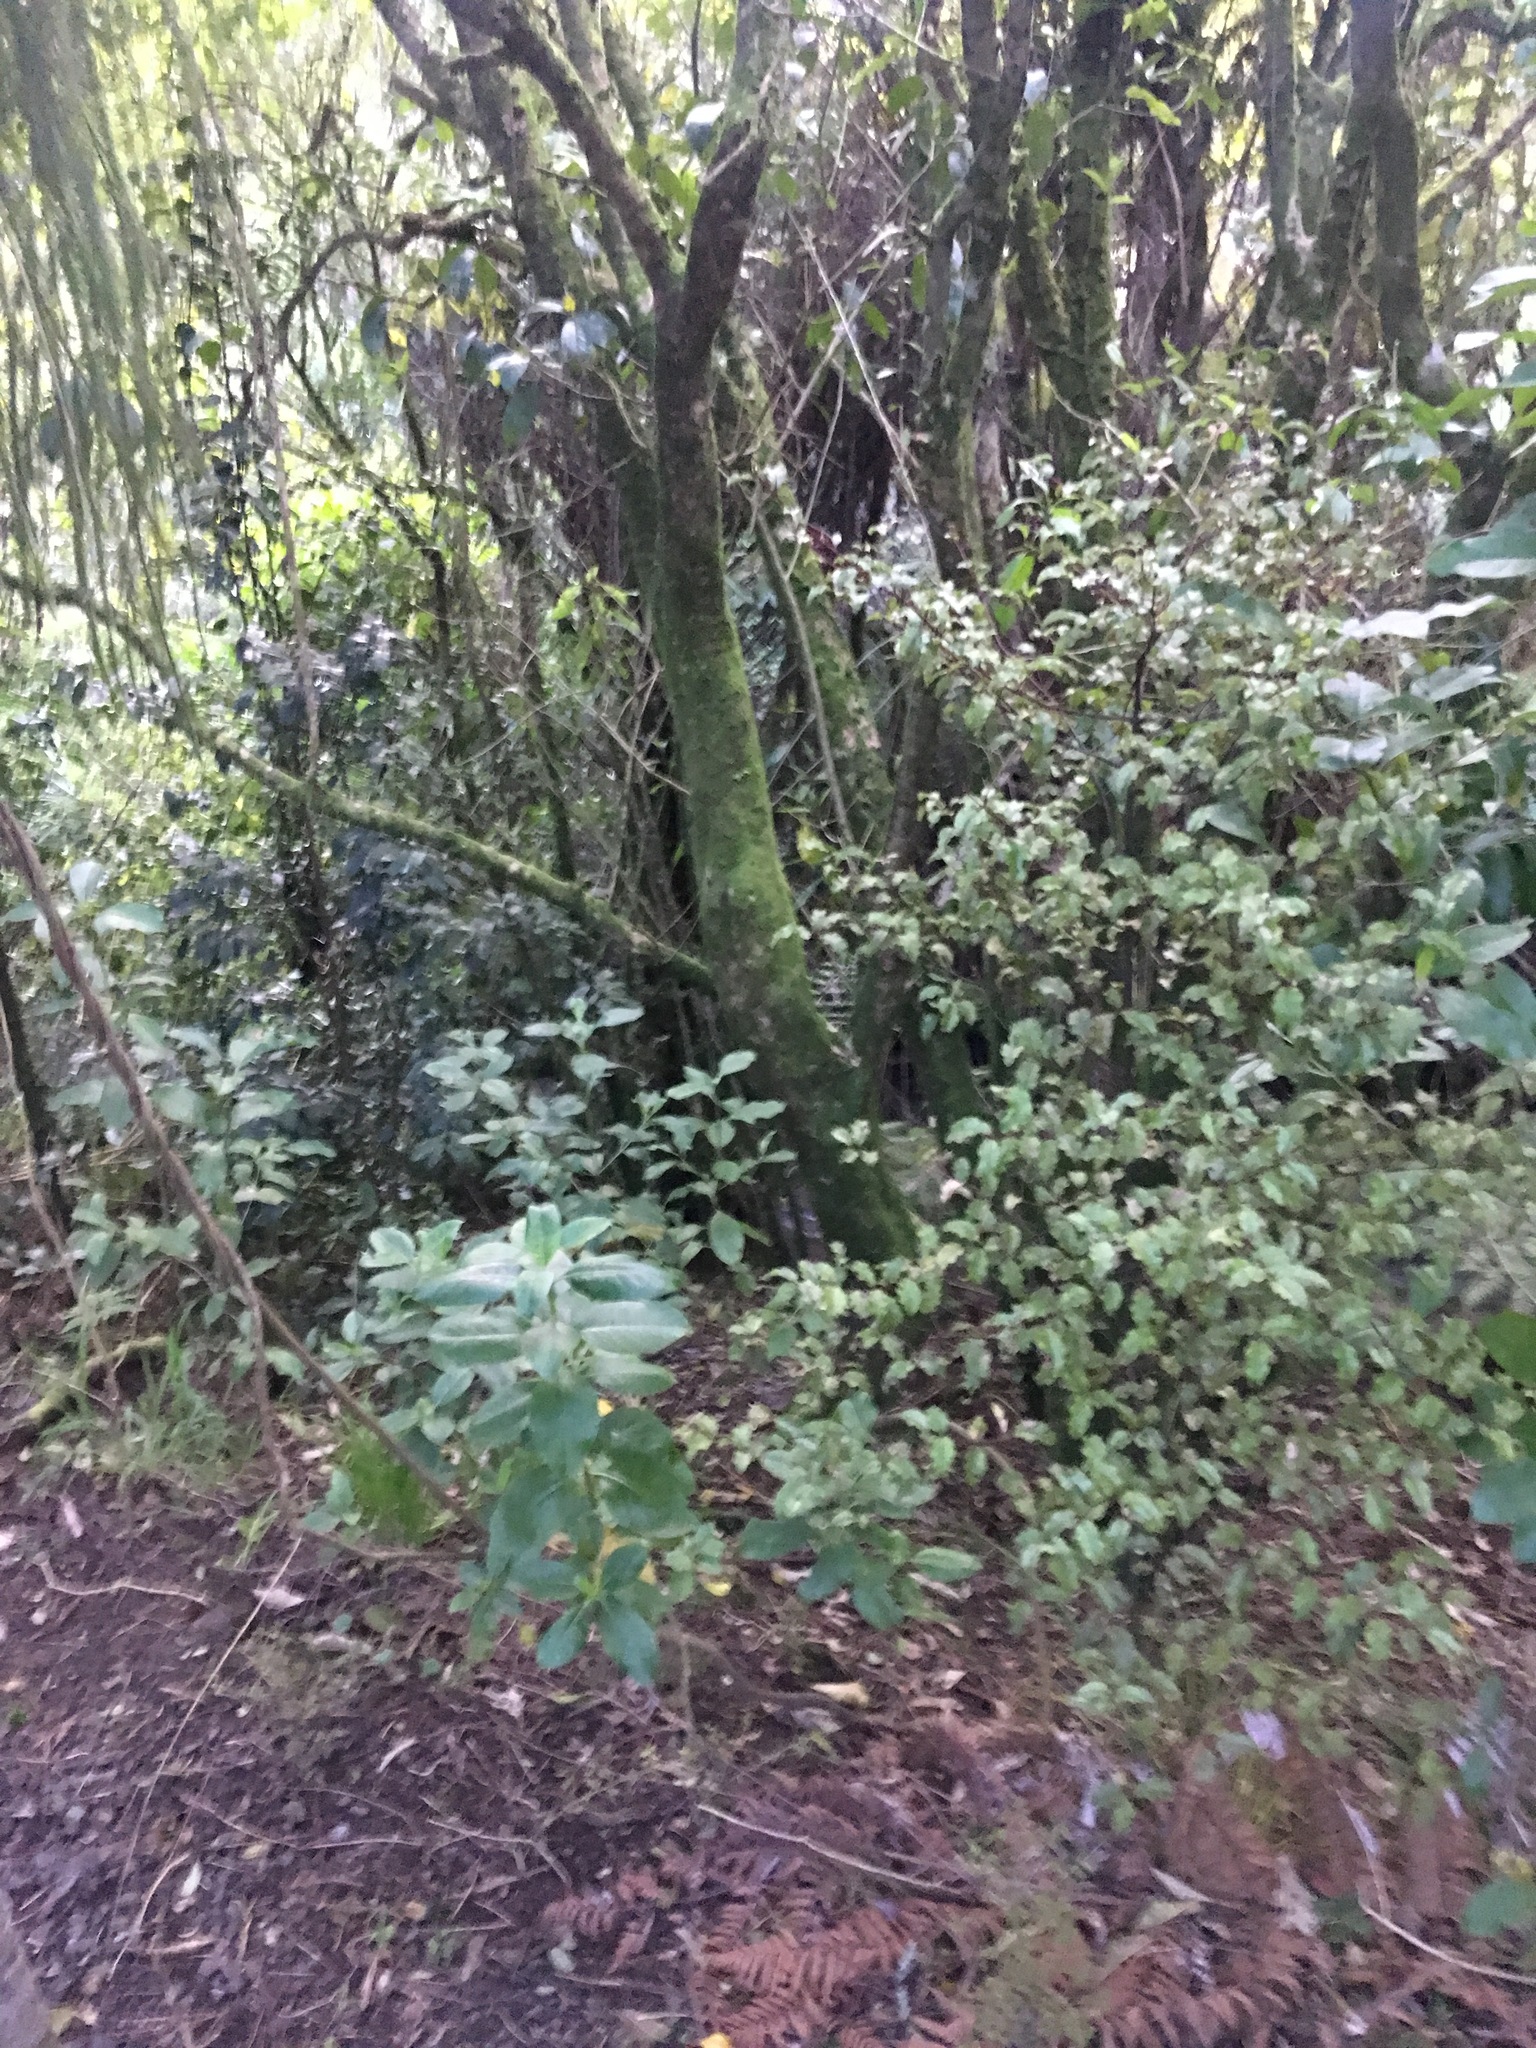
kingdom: Plantae
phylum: Tracheophyta
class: Magnoliopsida
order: Ericales
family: Primulaceae
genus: Myrsine
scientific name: Myrsine australis
